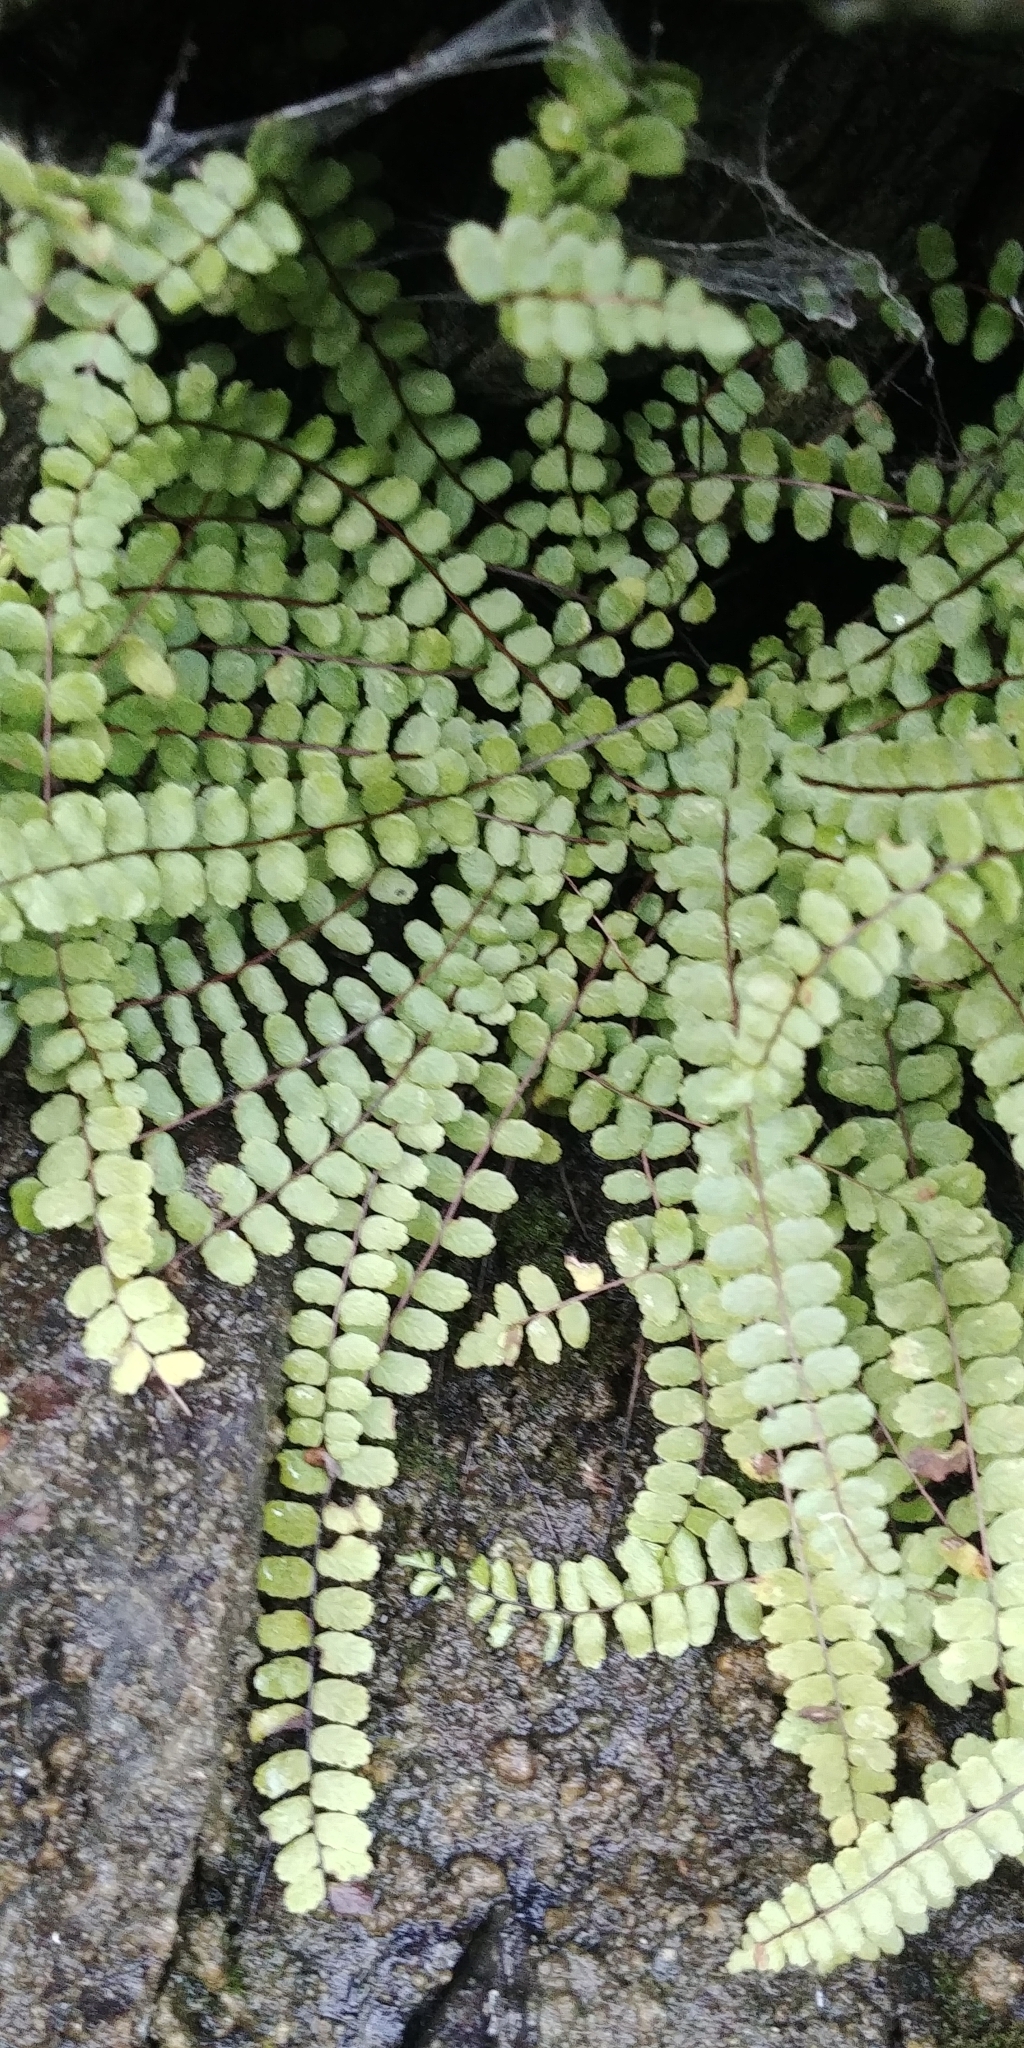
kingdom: Plantae
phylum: Tracheophyta
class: Polypodiopsida
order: Polypodiales
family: Aspleniaceae
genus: Asplenium
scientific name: Asplenium trichomanes
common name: Maidenhair spleenwort
